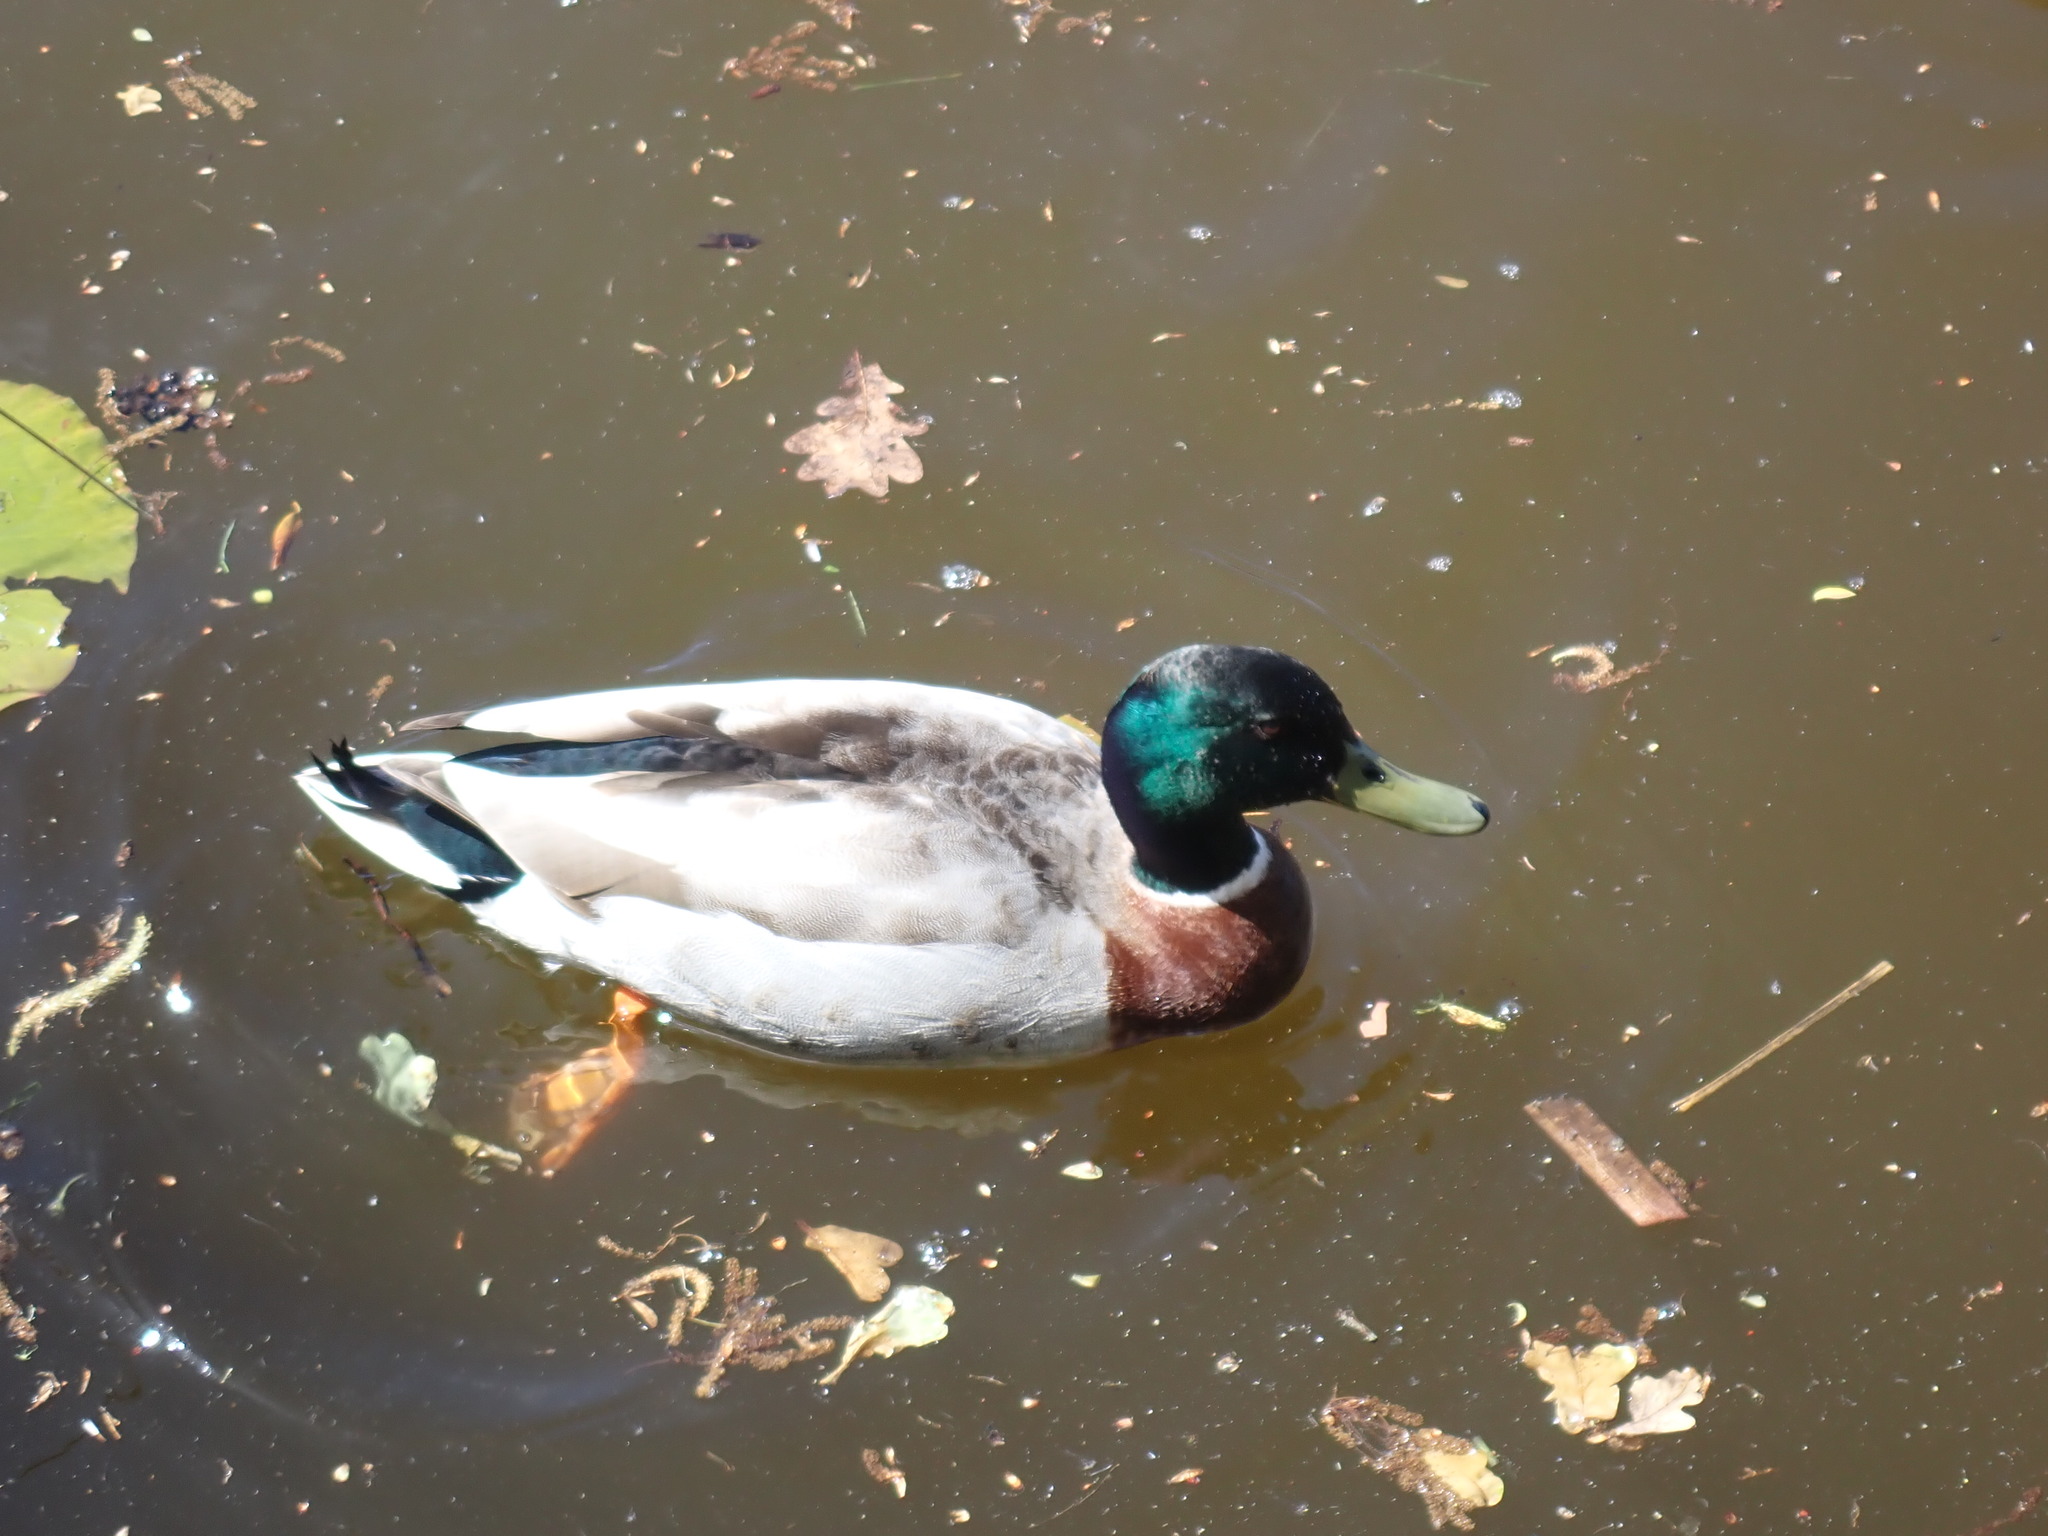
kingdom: Animalia
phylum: Chordata
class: Aves
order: Anseriformes
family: Anatidae
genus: Anas
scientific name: Anas platyrhynchos
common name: Mallard
